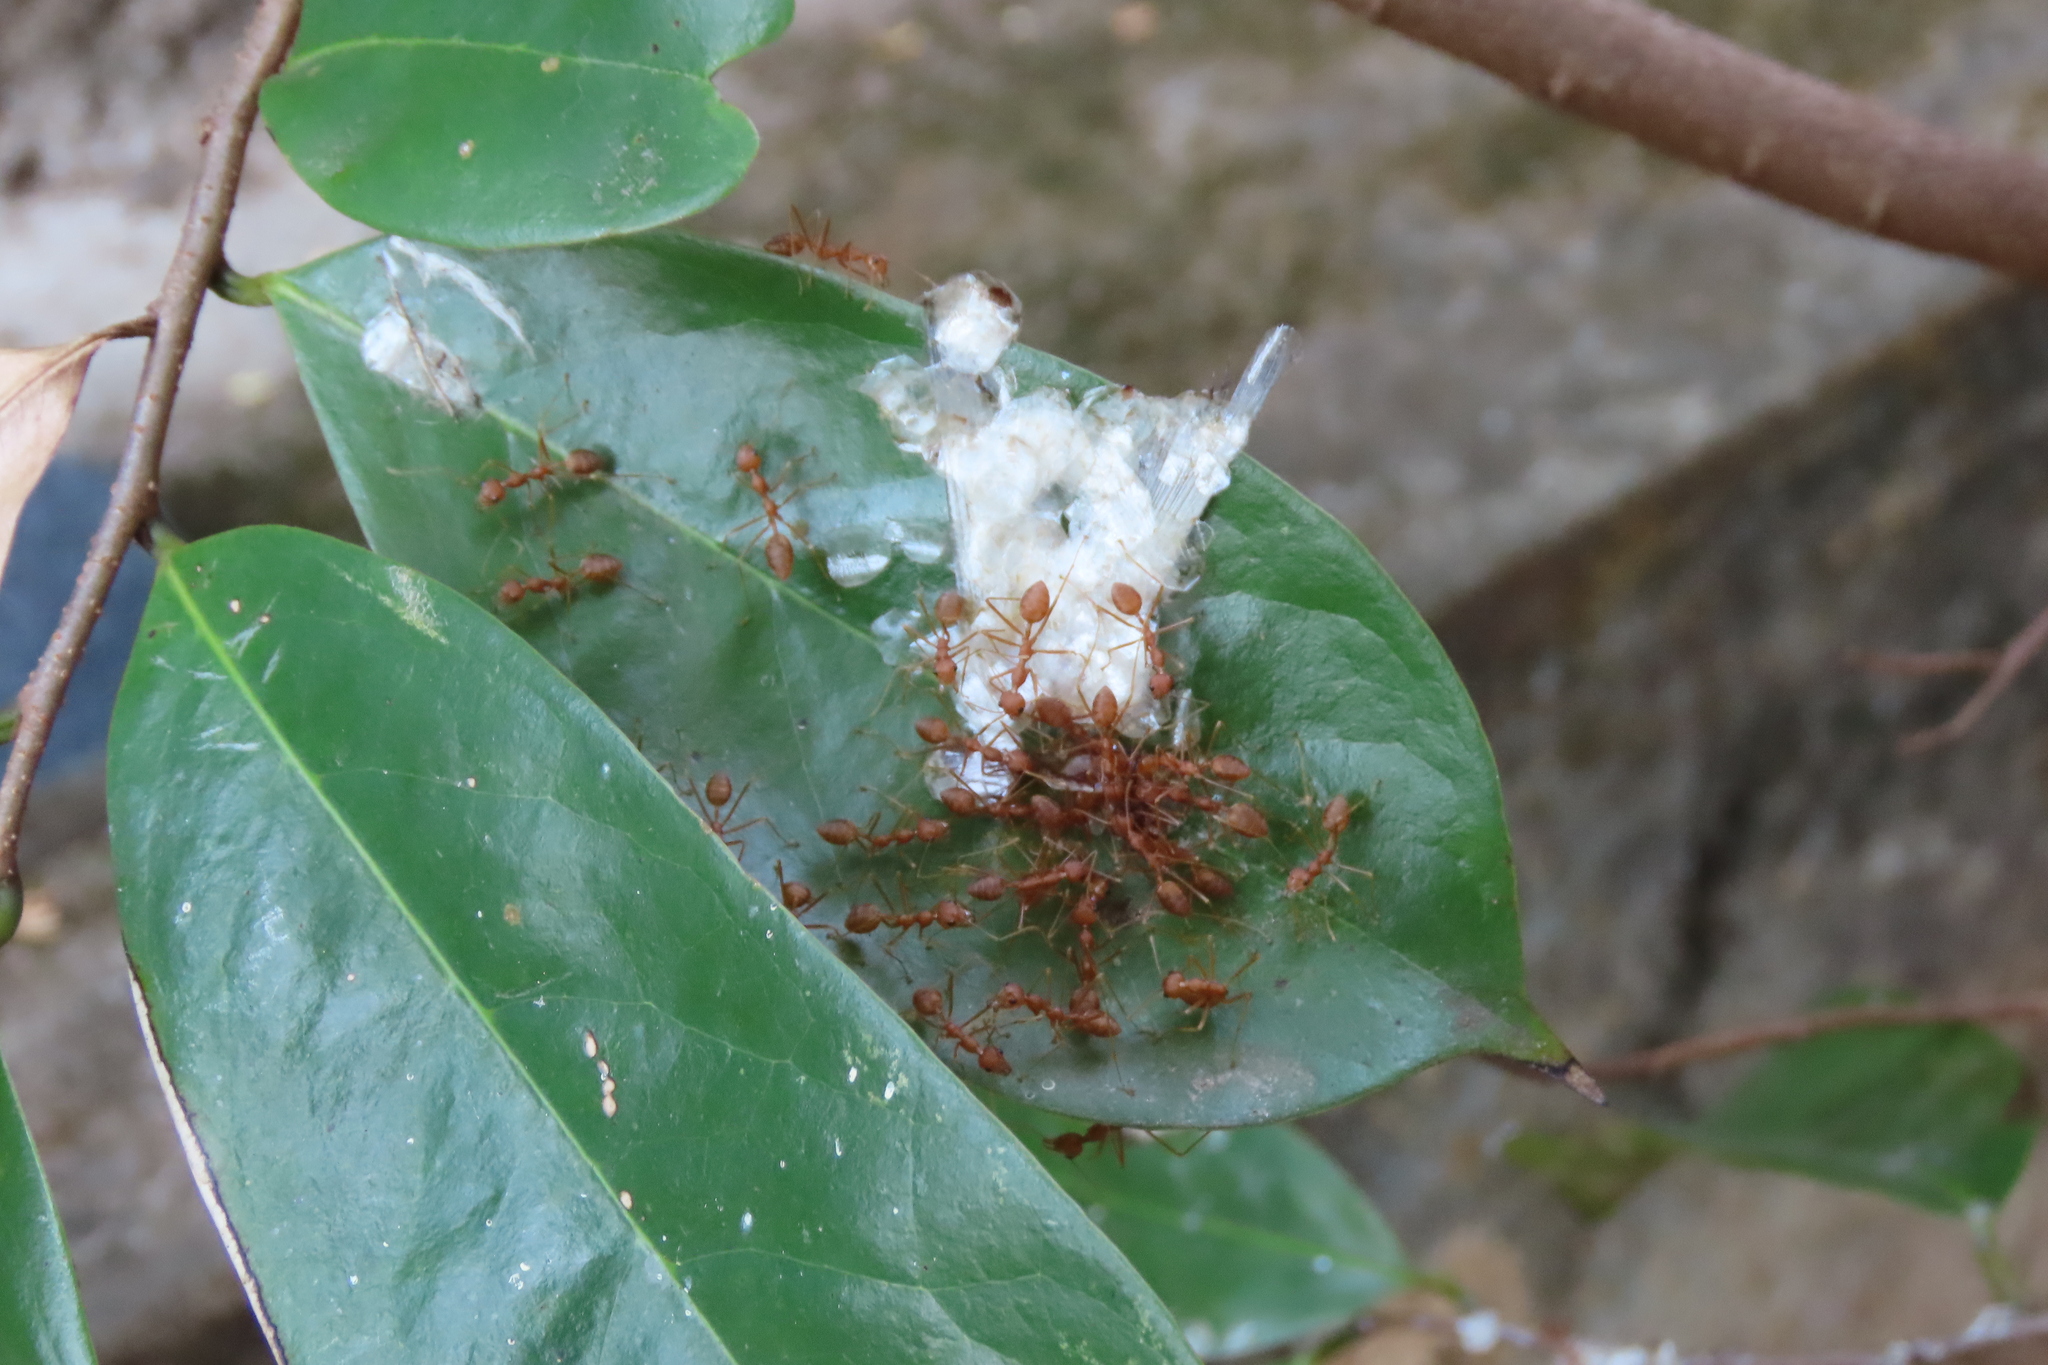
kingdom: Animalia
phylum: Arthropoda
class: Insecta
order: Hymenoptera
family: Formicidae
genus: Oecophylla
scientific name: Oecophylla smaragdina
